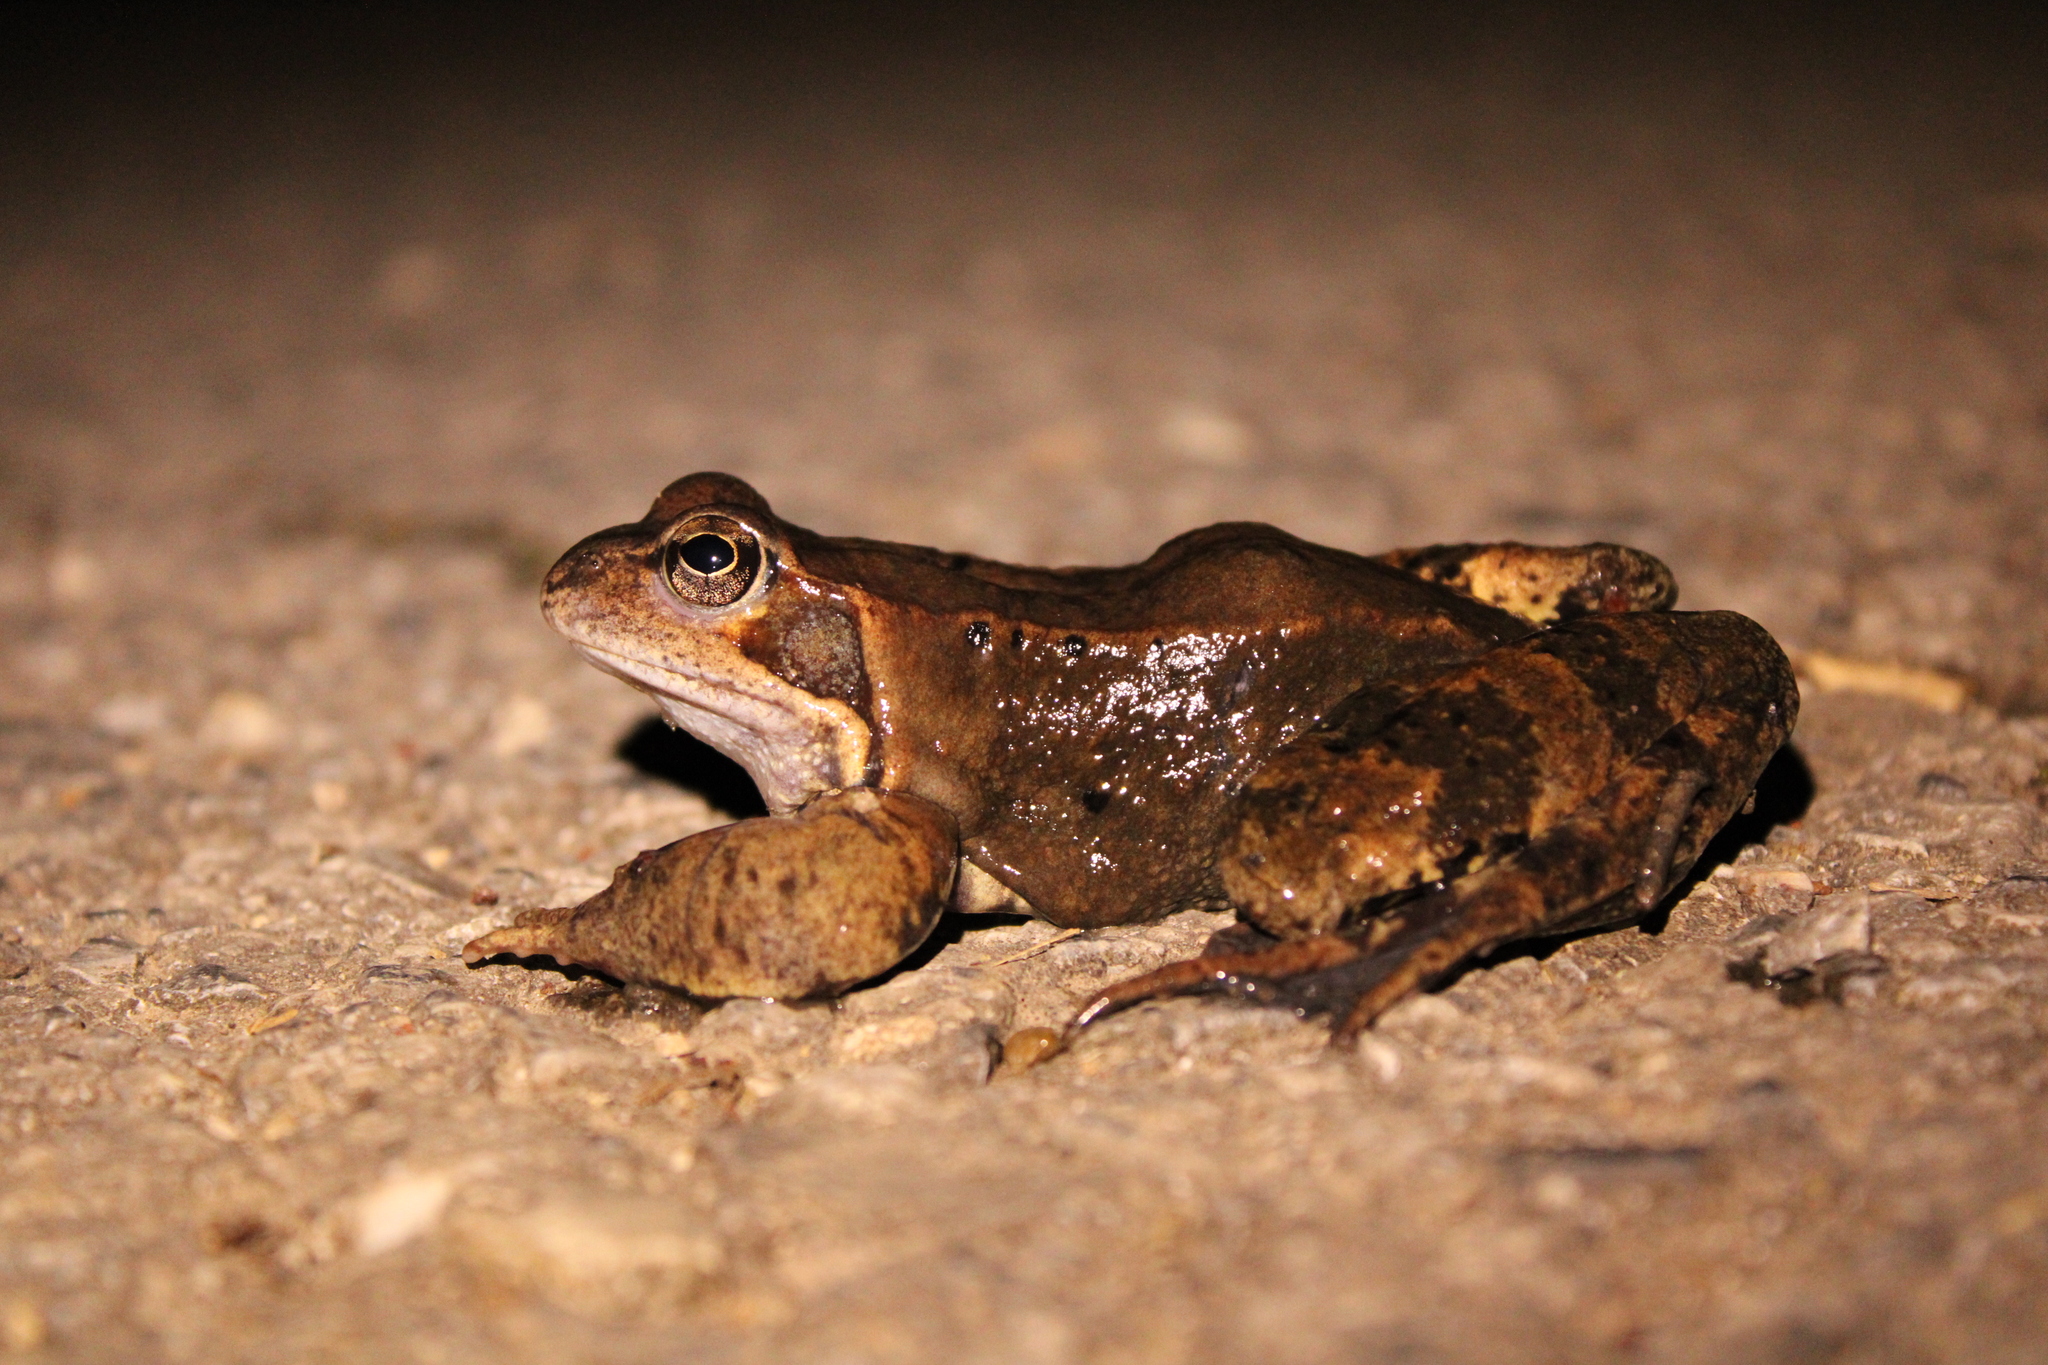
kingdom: Animalia
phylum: Chordata
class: Amphibia
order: Anura
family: Ranidae
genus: Rana
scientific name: Rana temporaria
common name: Common frog
